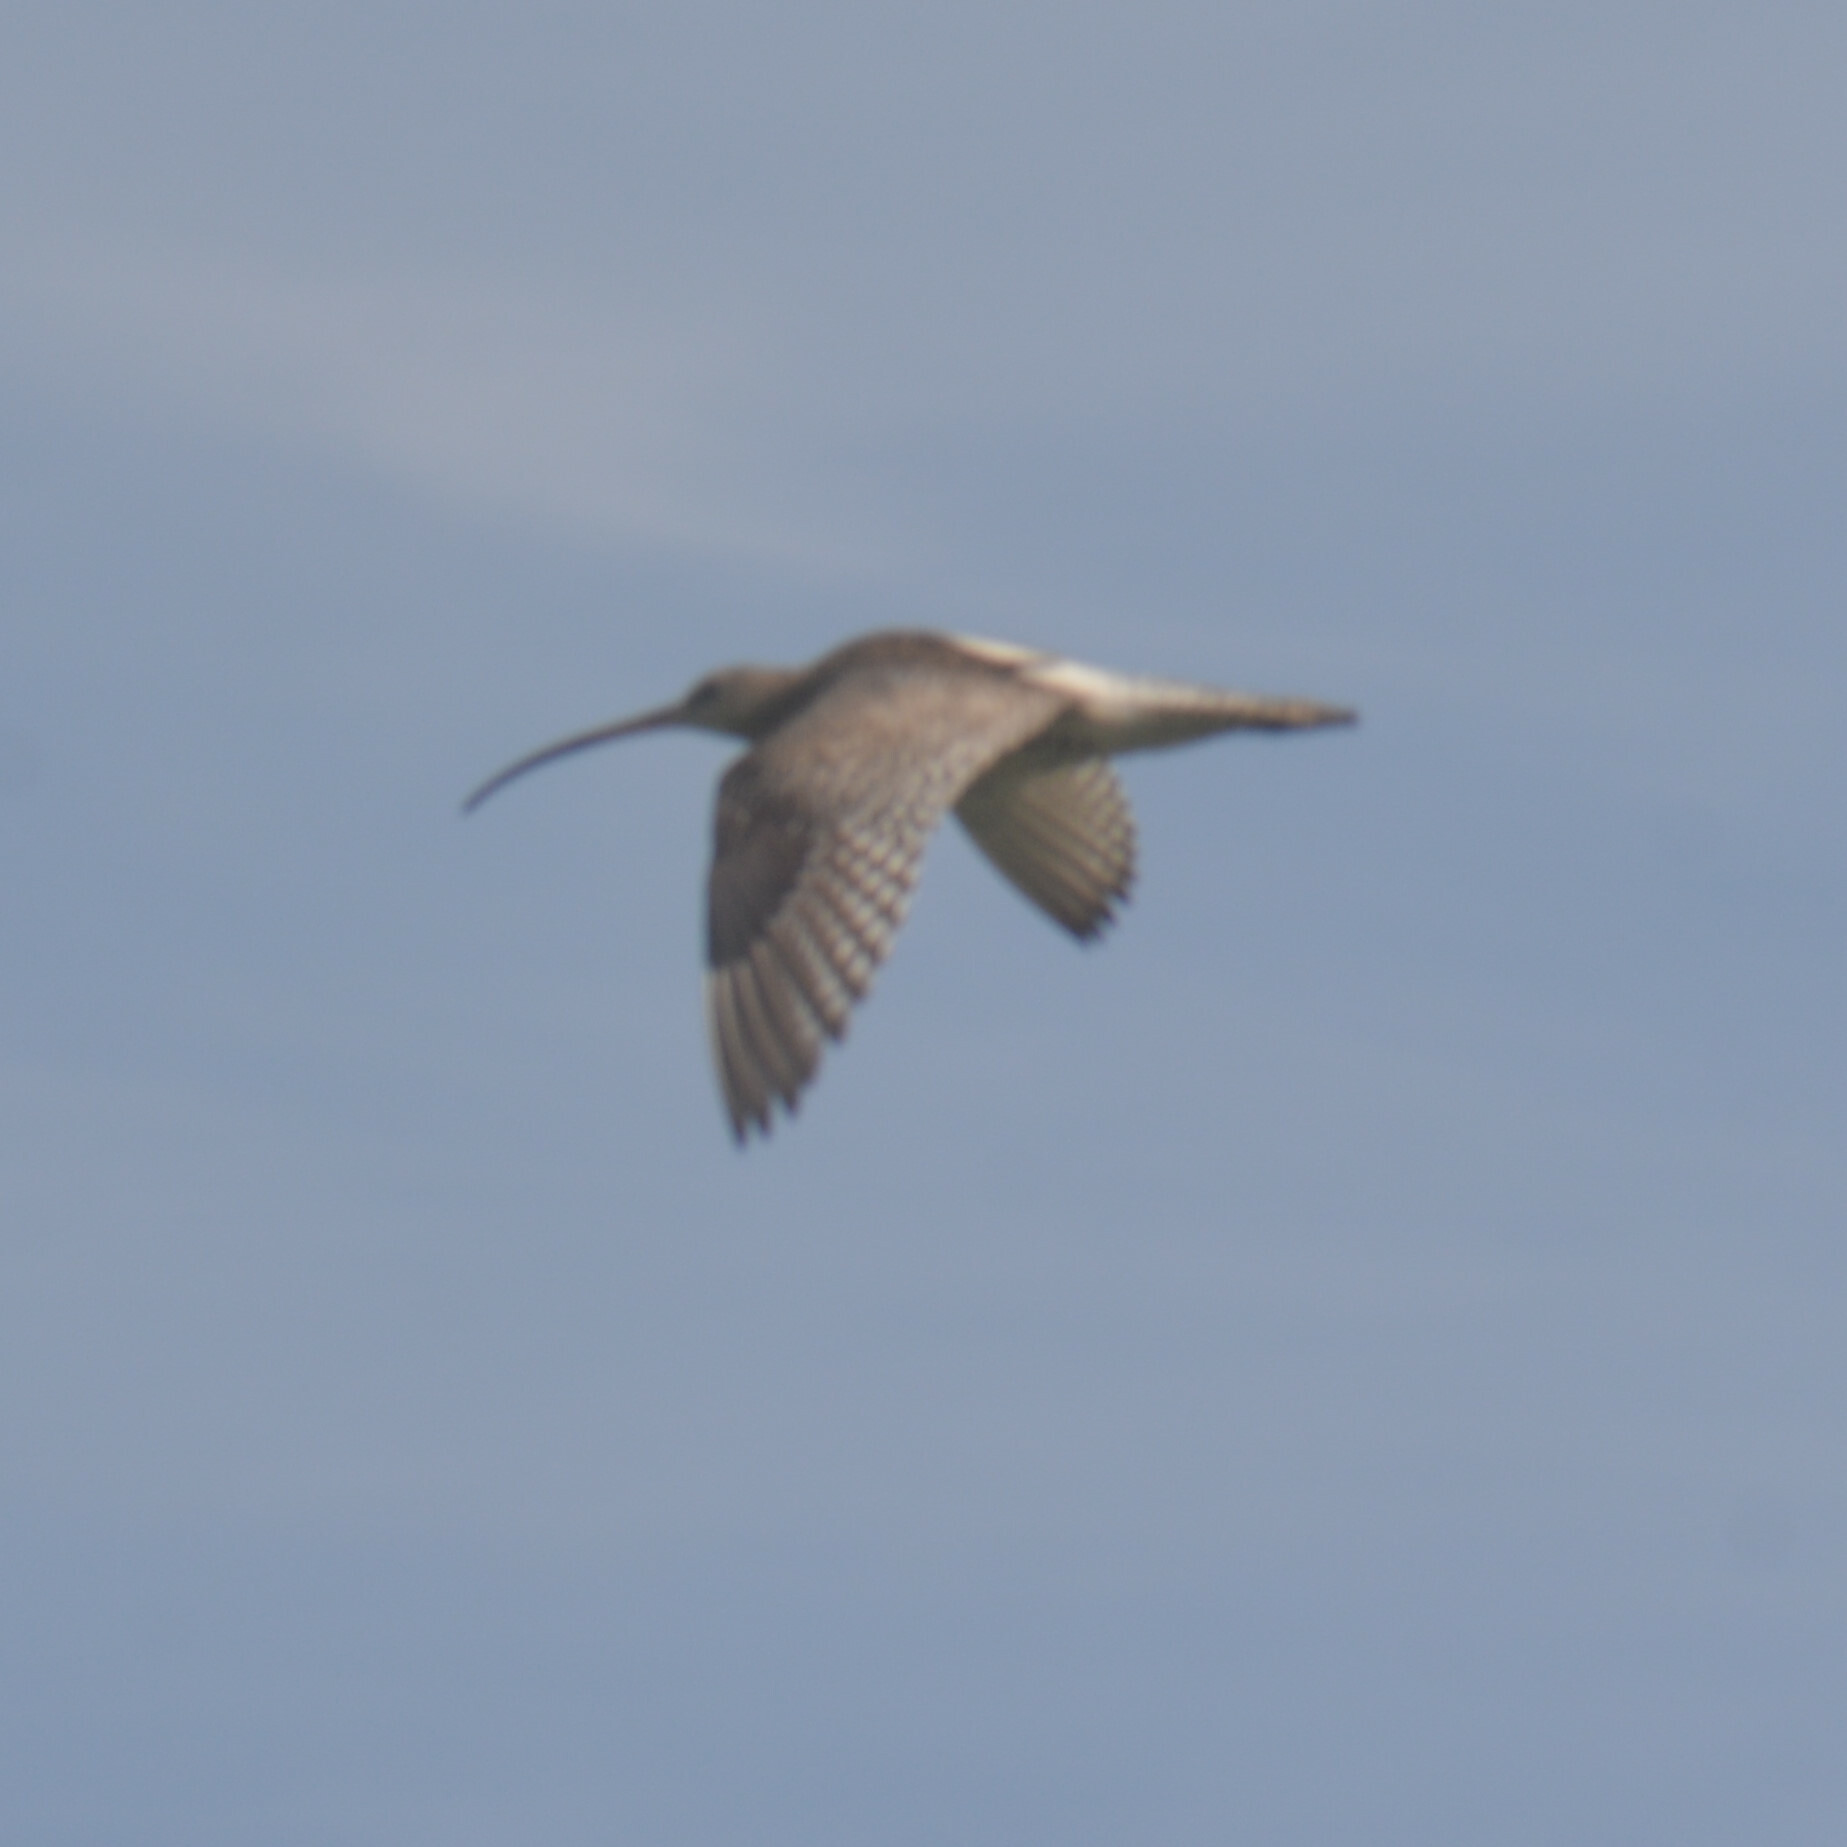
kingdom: Animalia
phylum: Chordata
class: Aves
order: Charadriiformes
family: Scolopacidae
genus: Numenius
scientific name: Numenius arquata
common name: Eurasian curlew
